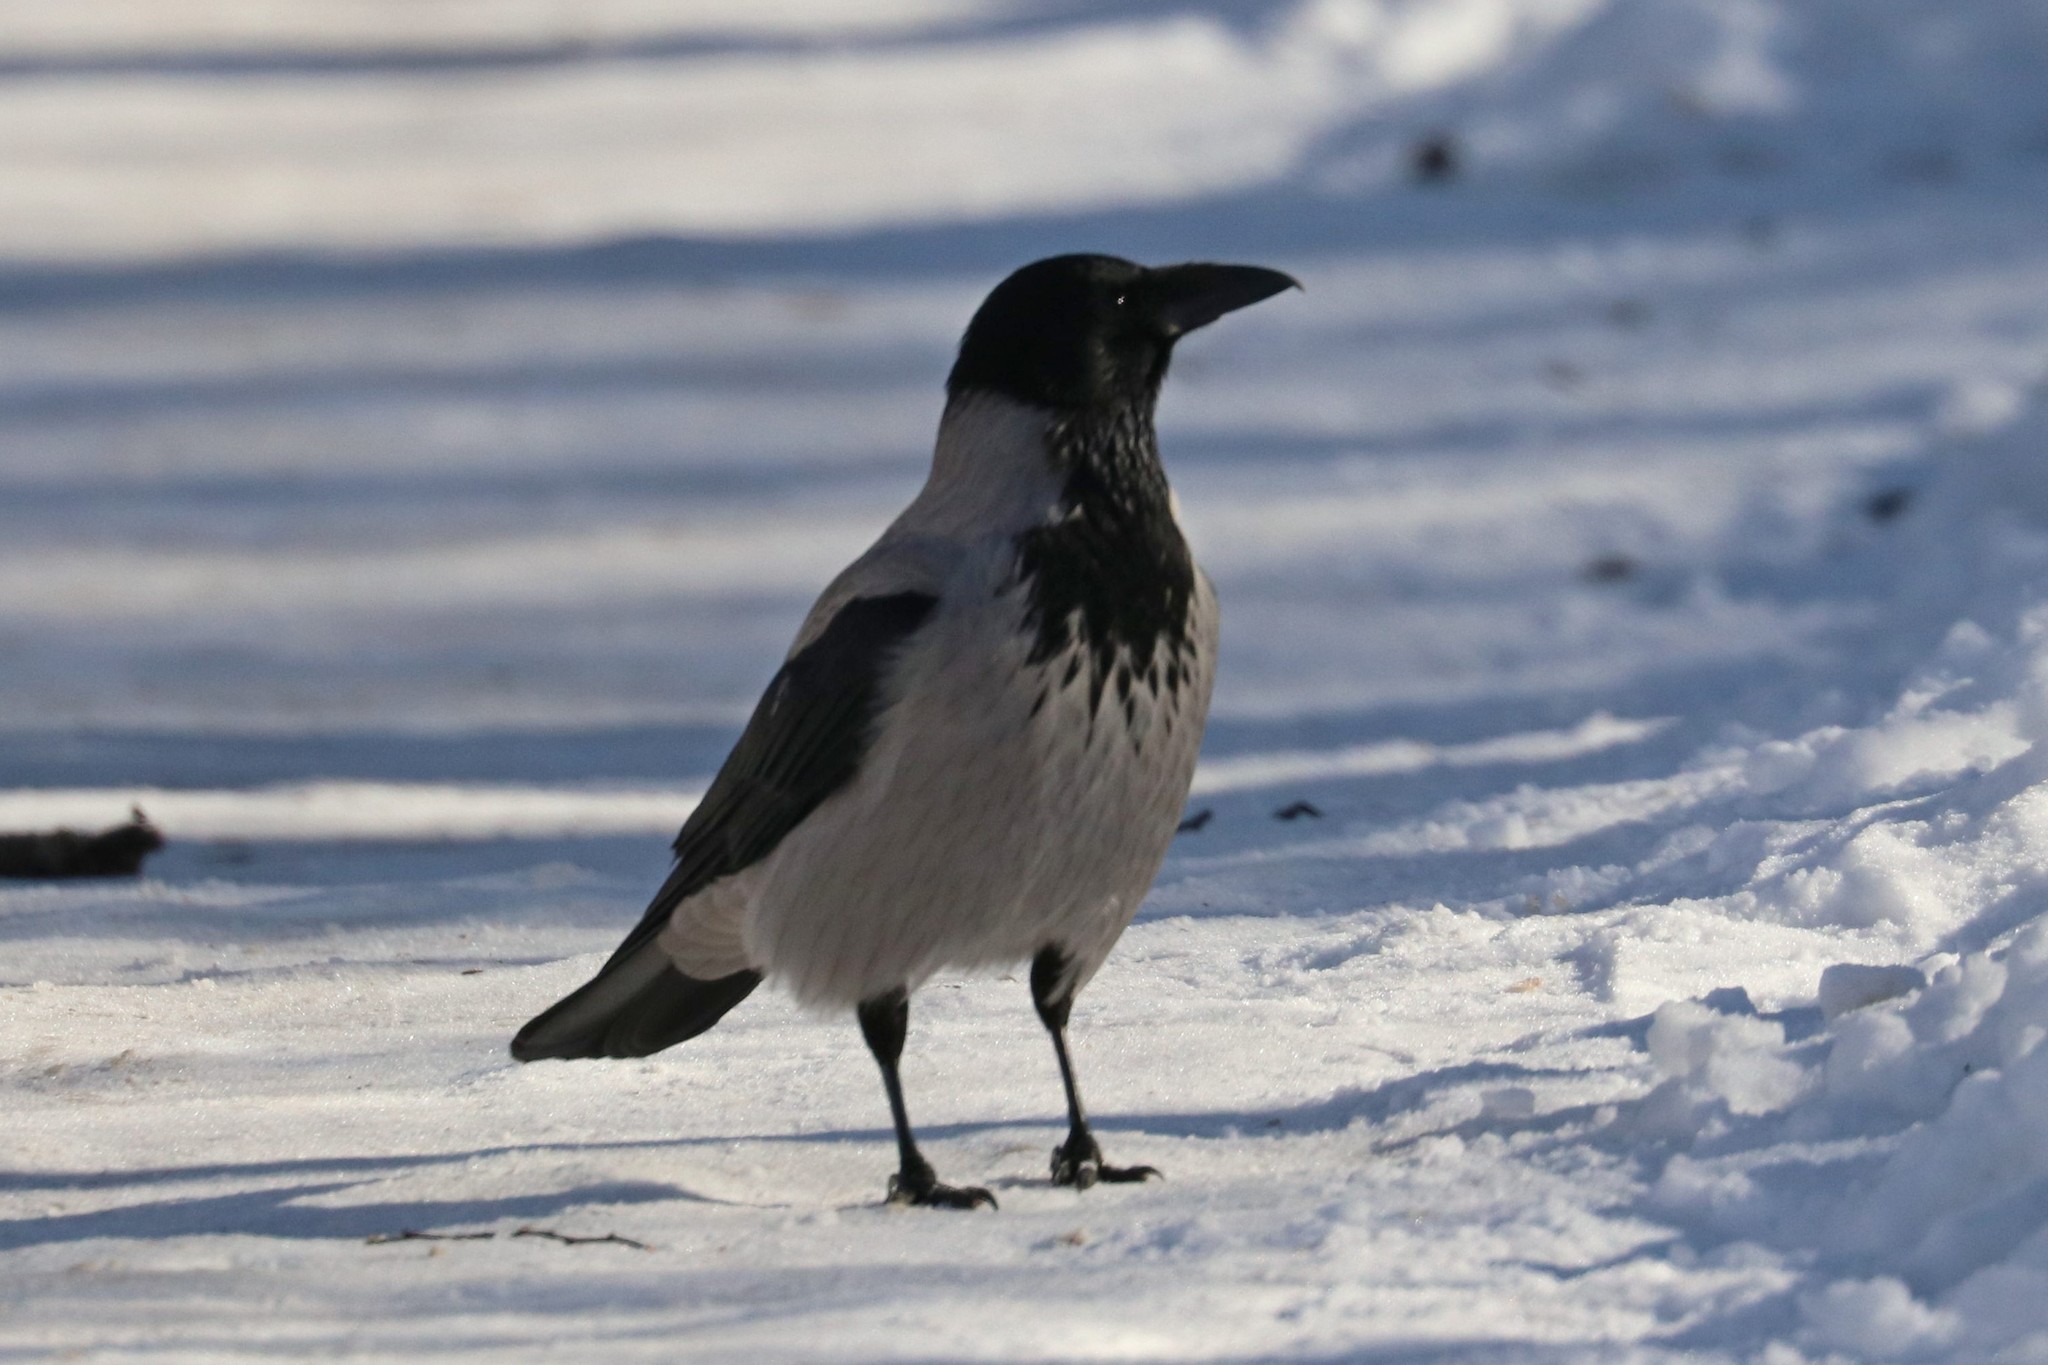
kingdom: Animalia
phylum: Chordata
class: Aves
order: Passeriformes
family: Corvidae
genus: Corvus
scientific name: Corvus cornix
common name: Hooded crow
